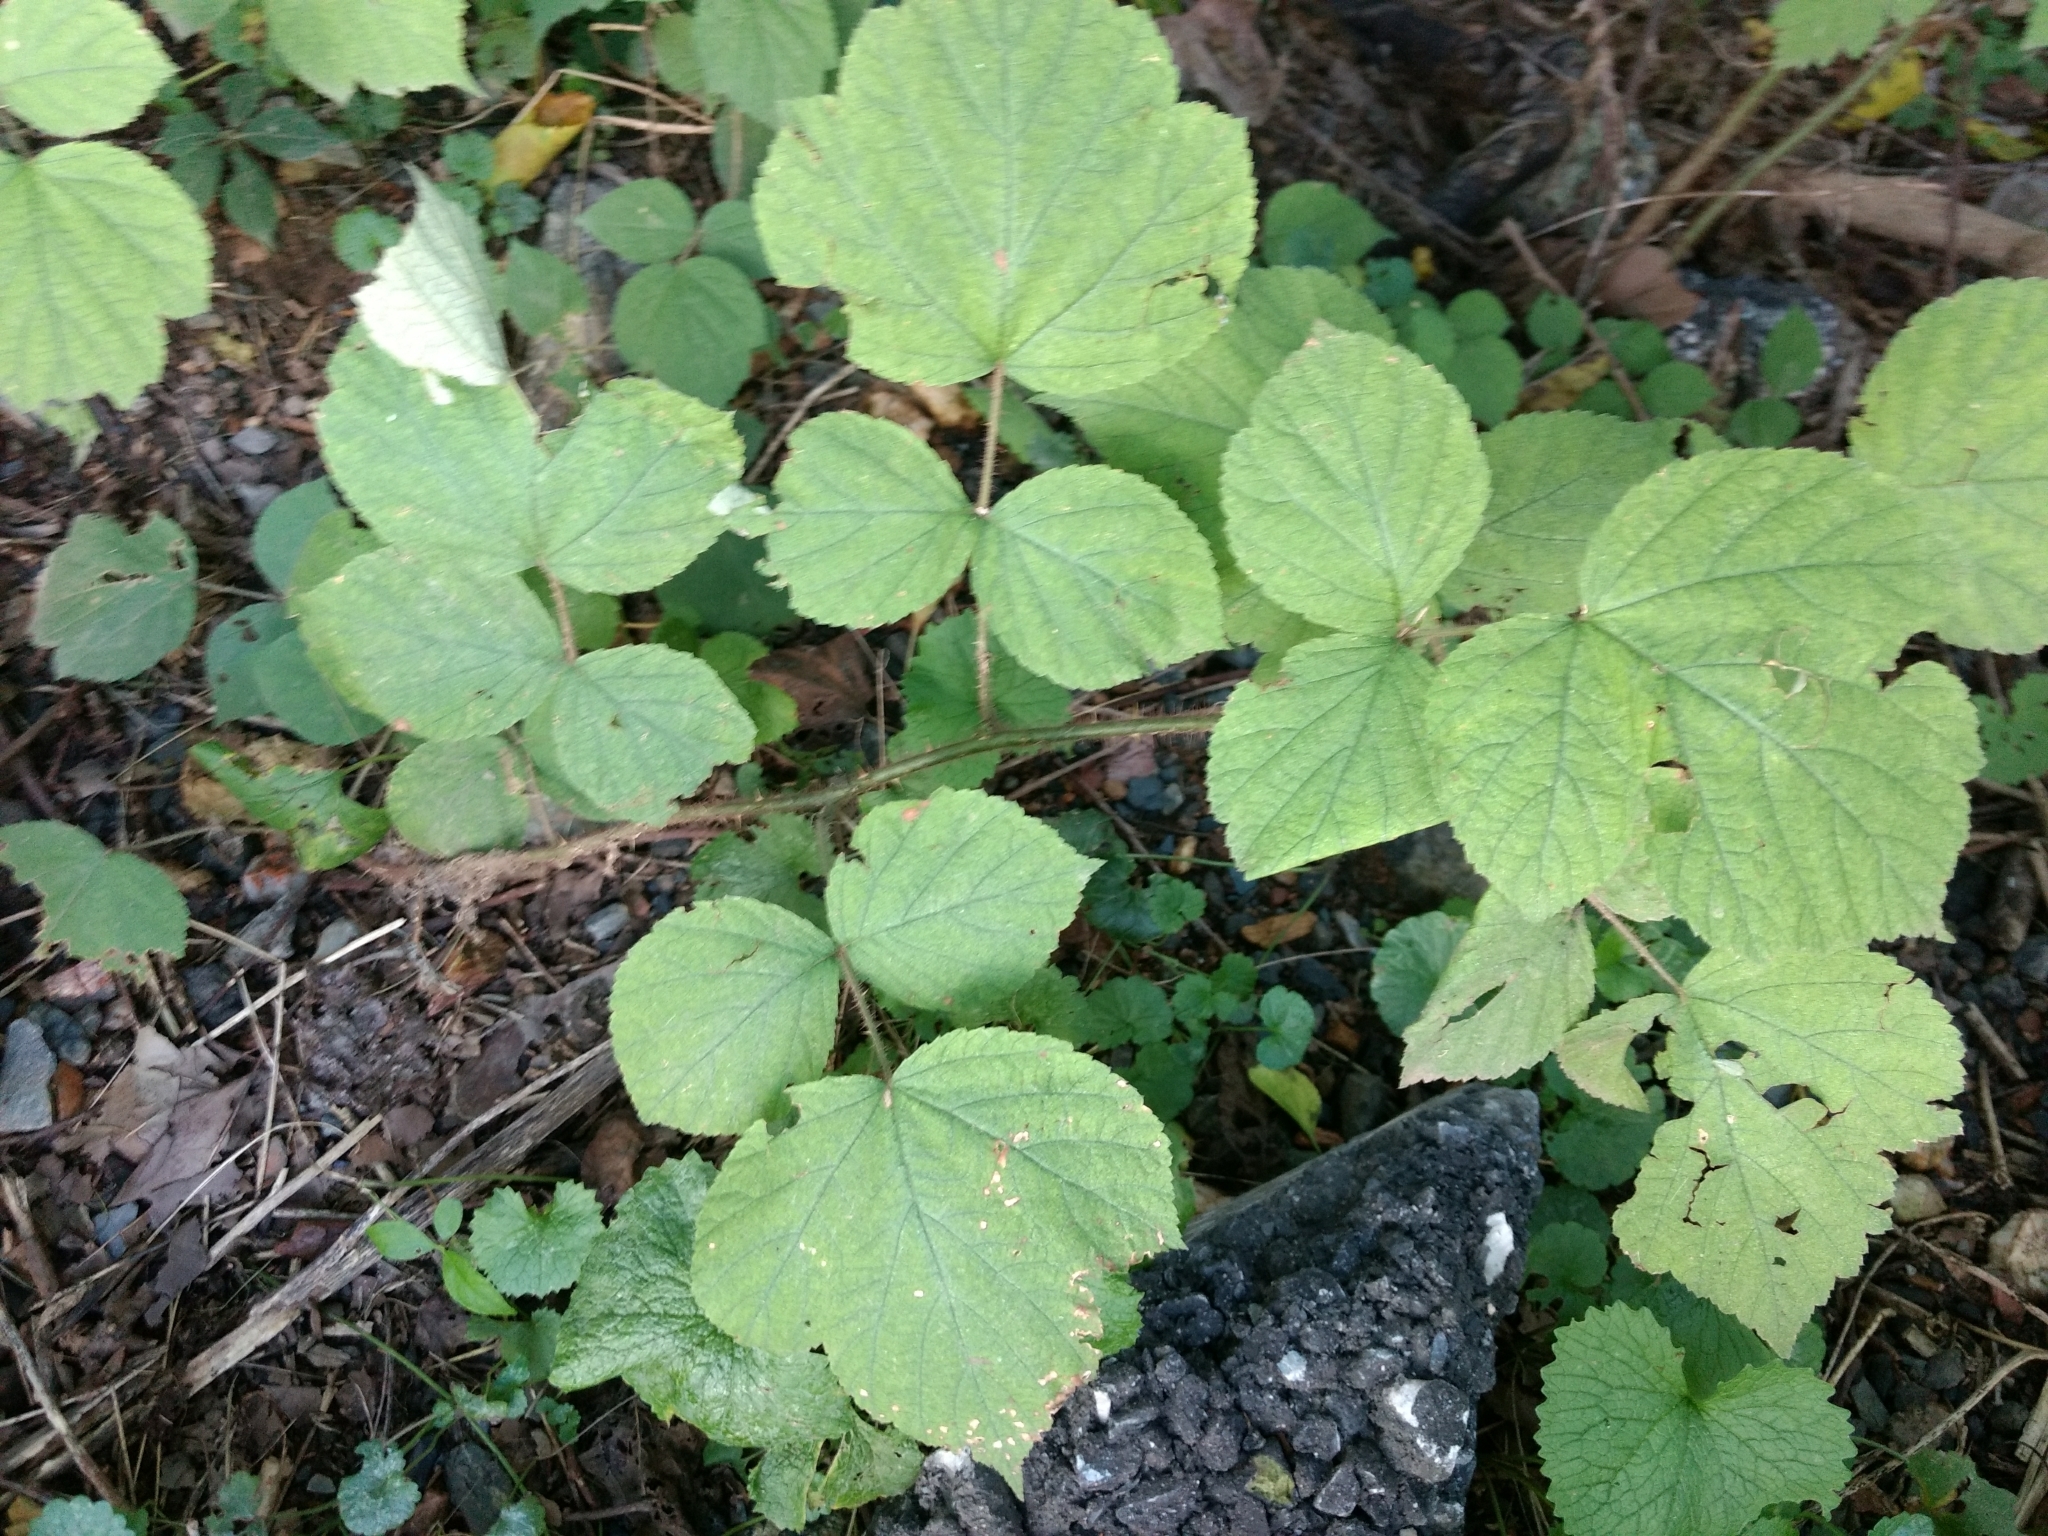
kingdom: Plantae
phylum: Tracheophyta
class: Magnoliopsida
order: Rosales
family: Rosaceae
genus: Rubus
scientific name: Rubus phoenicolasius
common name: Japanese wineberry
